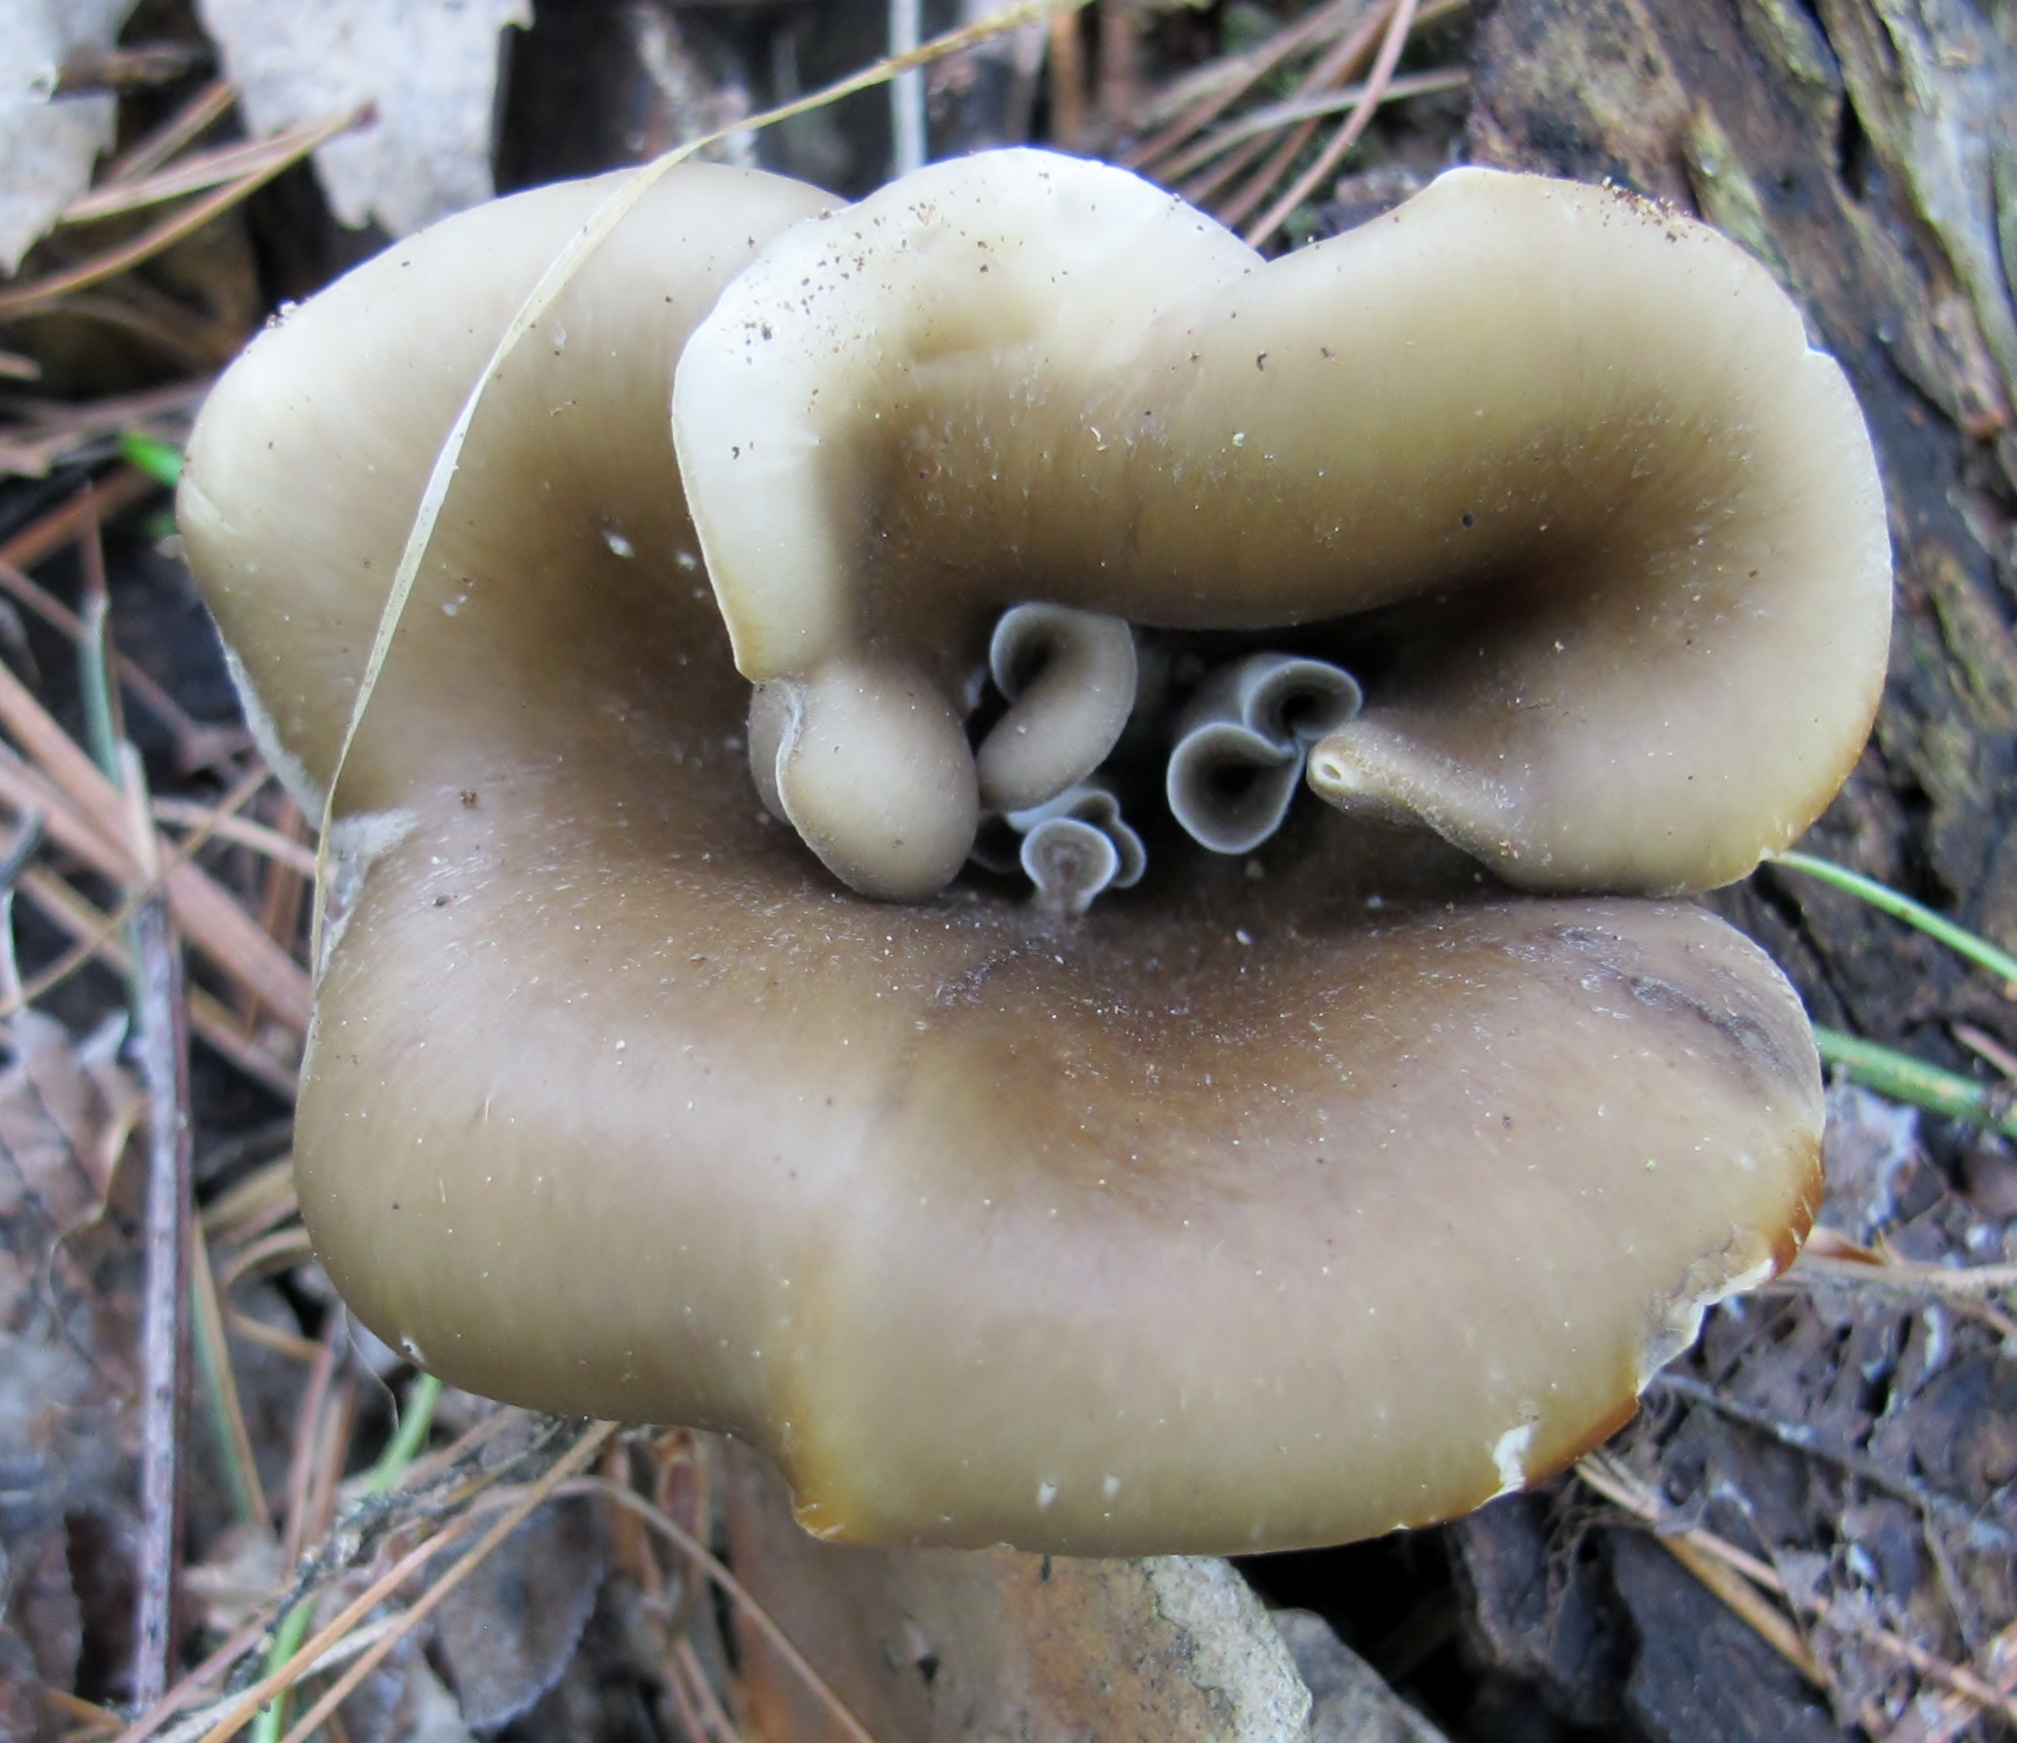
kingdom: Fungi
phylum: Basidiomycota
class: Agaricomycetes
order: Polyporales
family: Polyporaceae
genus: Picipes
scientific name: Picipes badius
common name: Bay polypore
